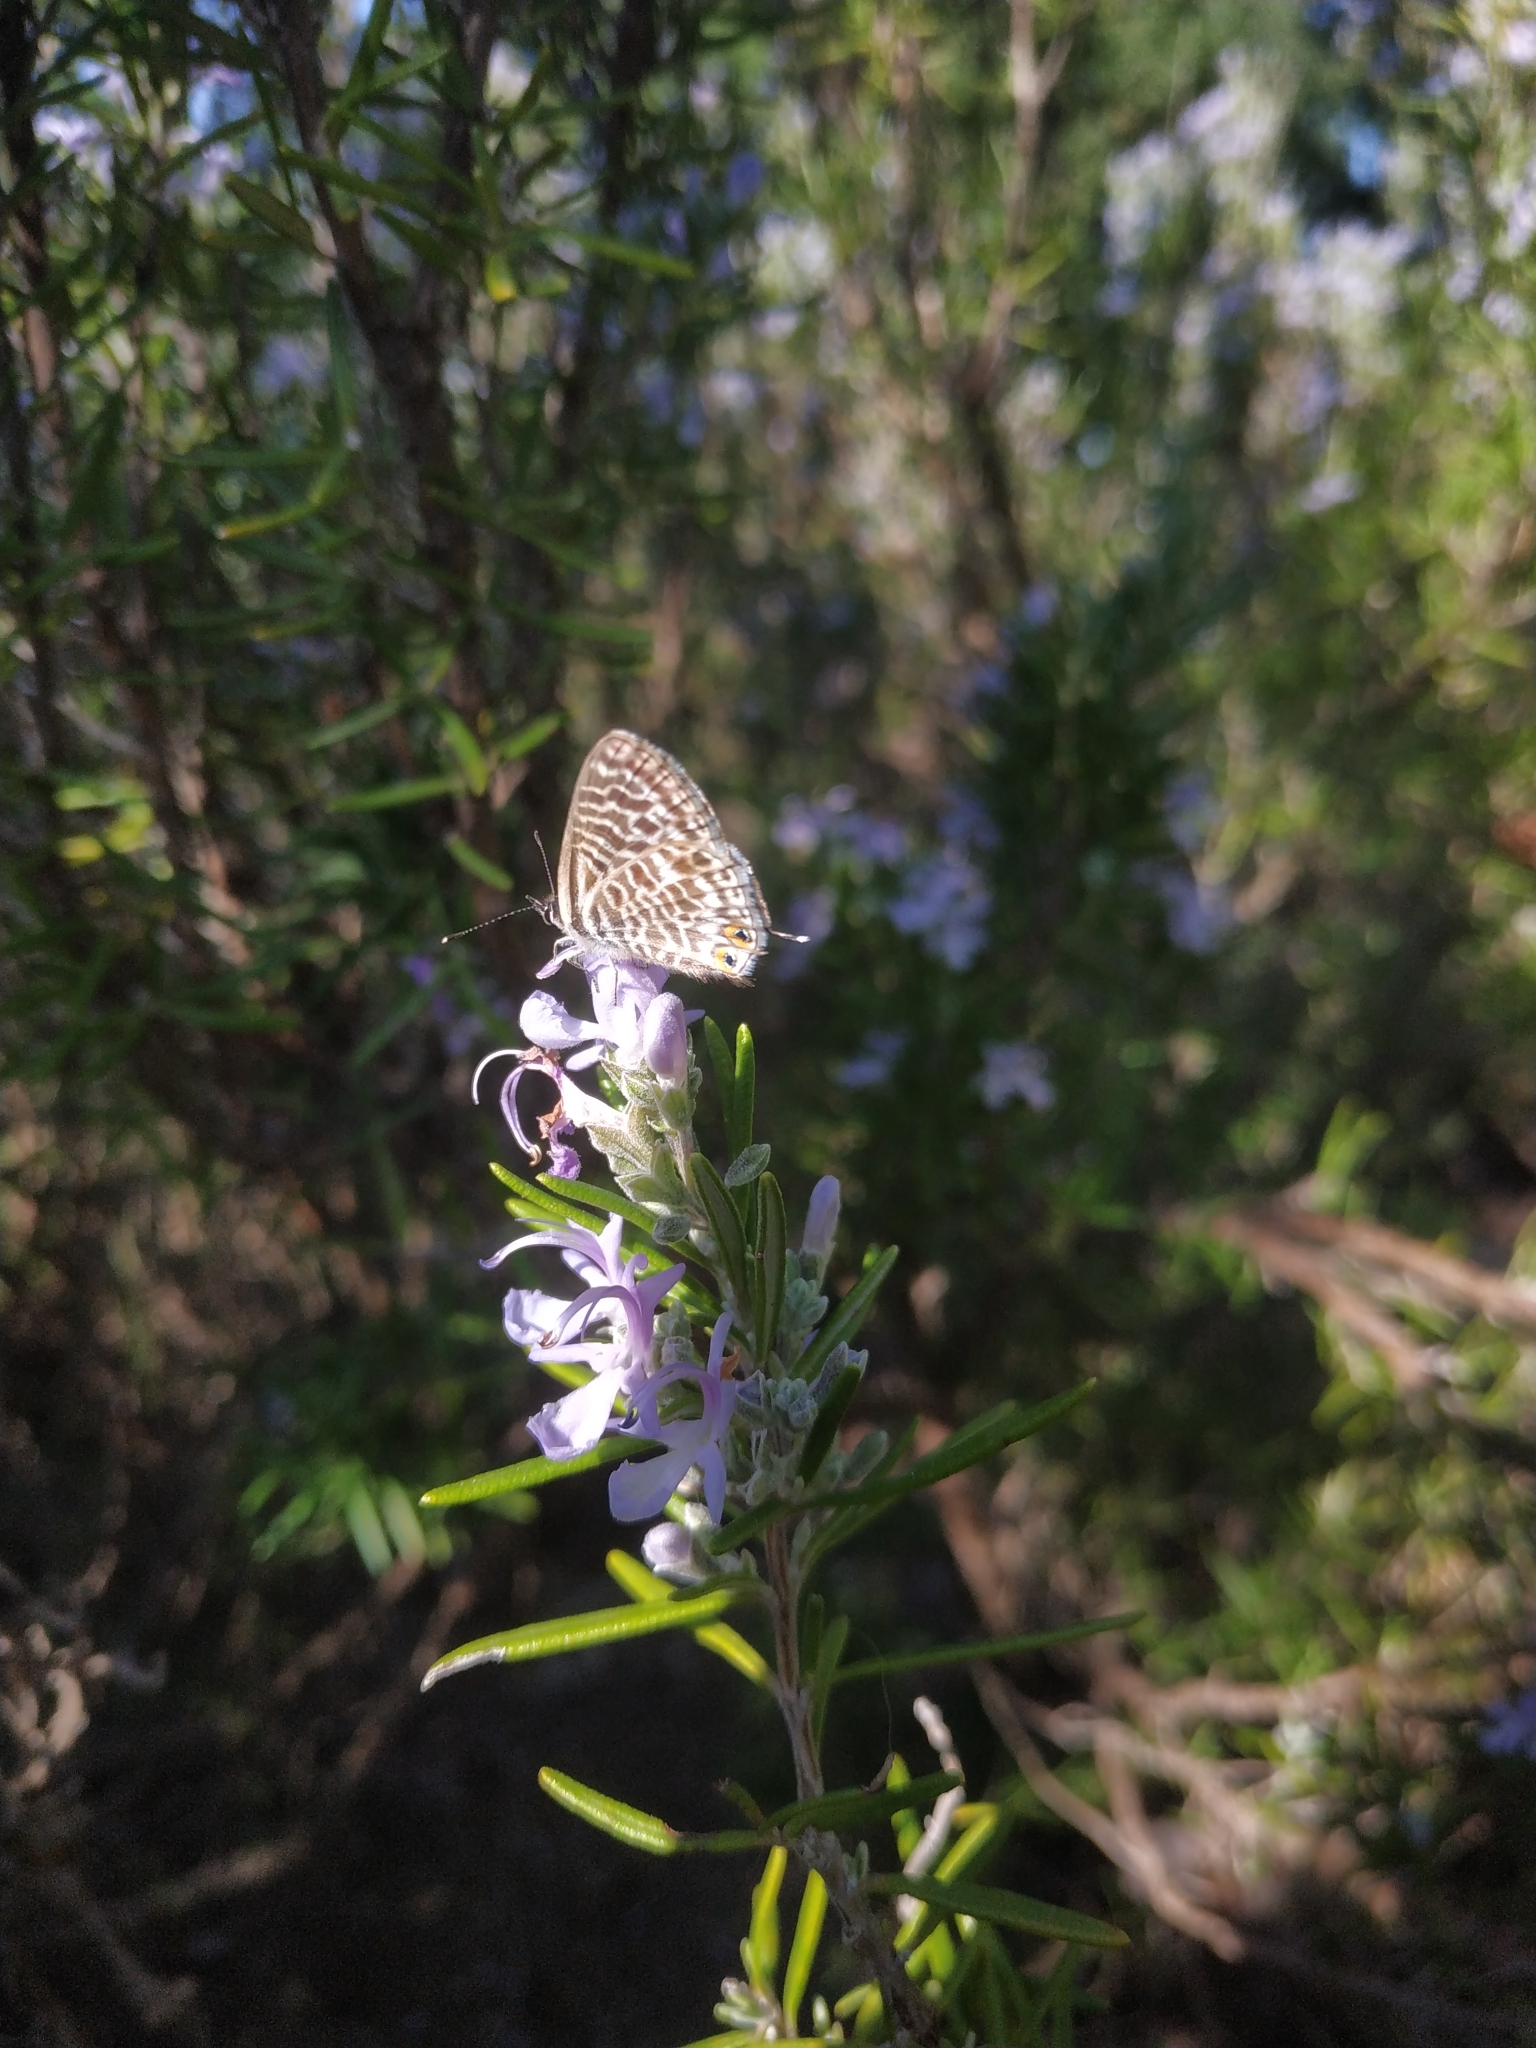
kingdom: Animalia
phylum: Arthropoda
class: Insecta
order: Lepidoptera
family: Lycaenidae
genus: Leptotes
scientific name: Leptotes pirithous
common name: Lang's short-tailed blue
